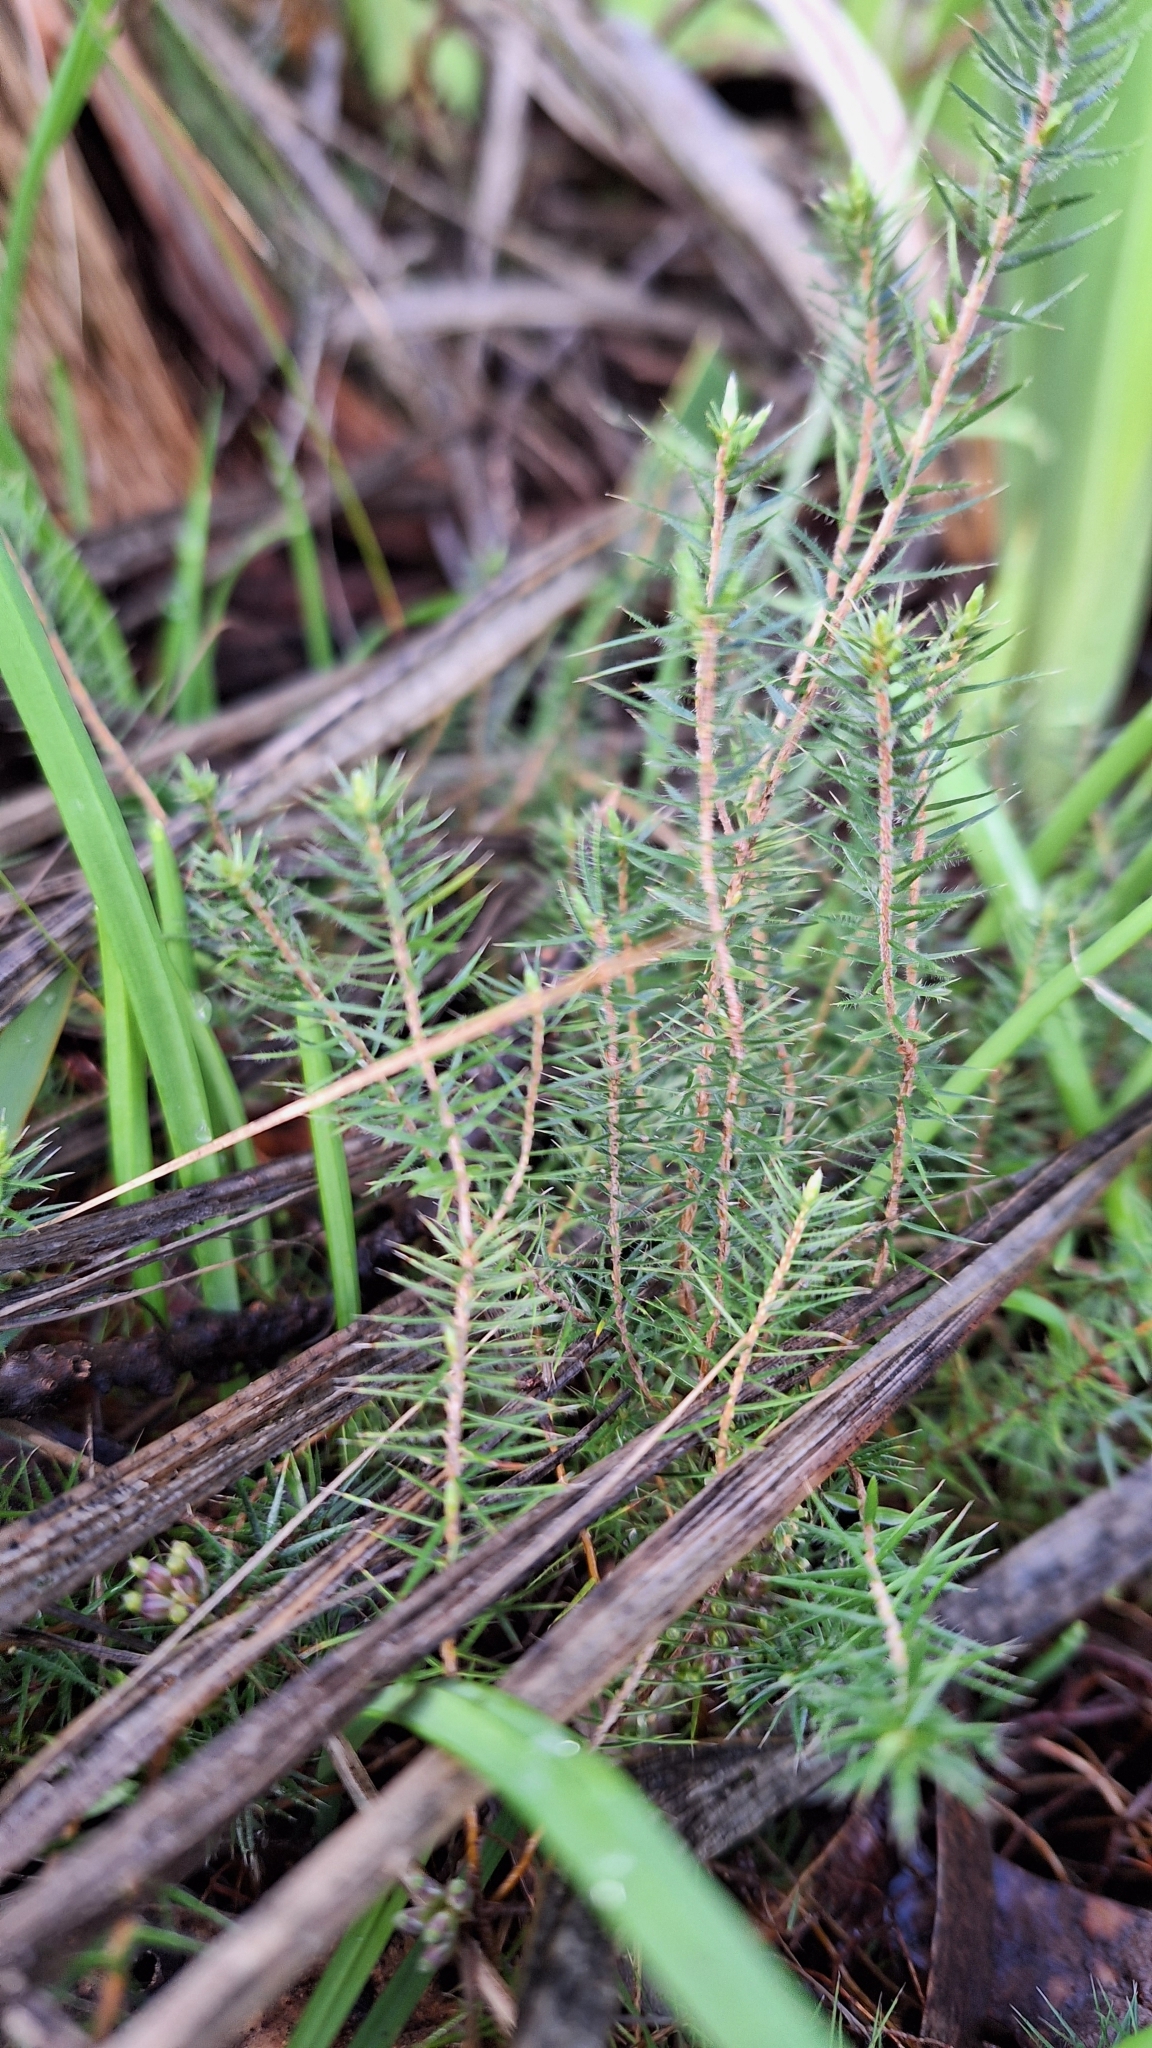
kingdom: Plantae
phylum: Tracheophyta
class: Magnoliopsida
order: Ericales
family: Ericaceae
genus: Acrotriche
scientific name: Acrotriche serrulata
